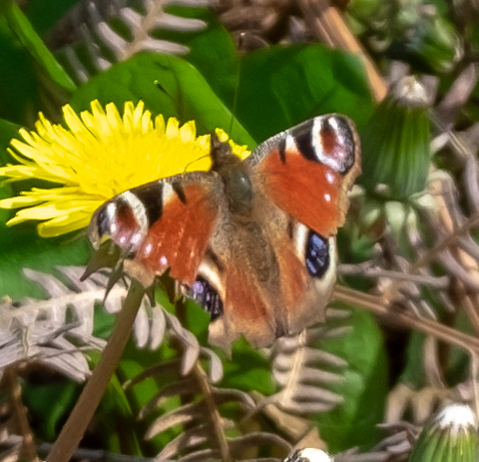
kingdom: Animalia
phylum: Arthropoda
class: Insecta
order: Lepidoptera
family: Nymphalidae
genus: Aglais
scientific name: Aglais io
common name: Peacock
